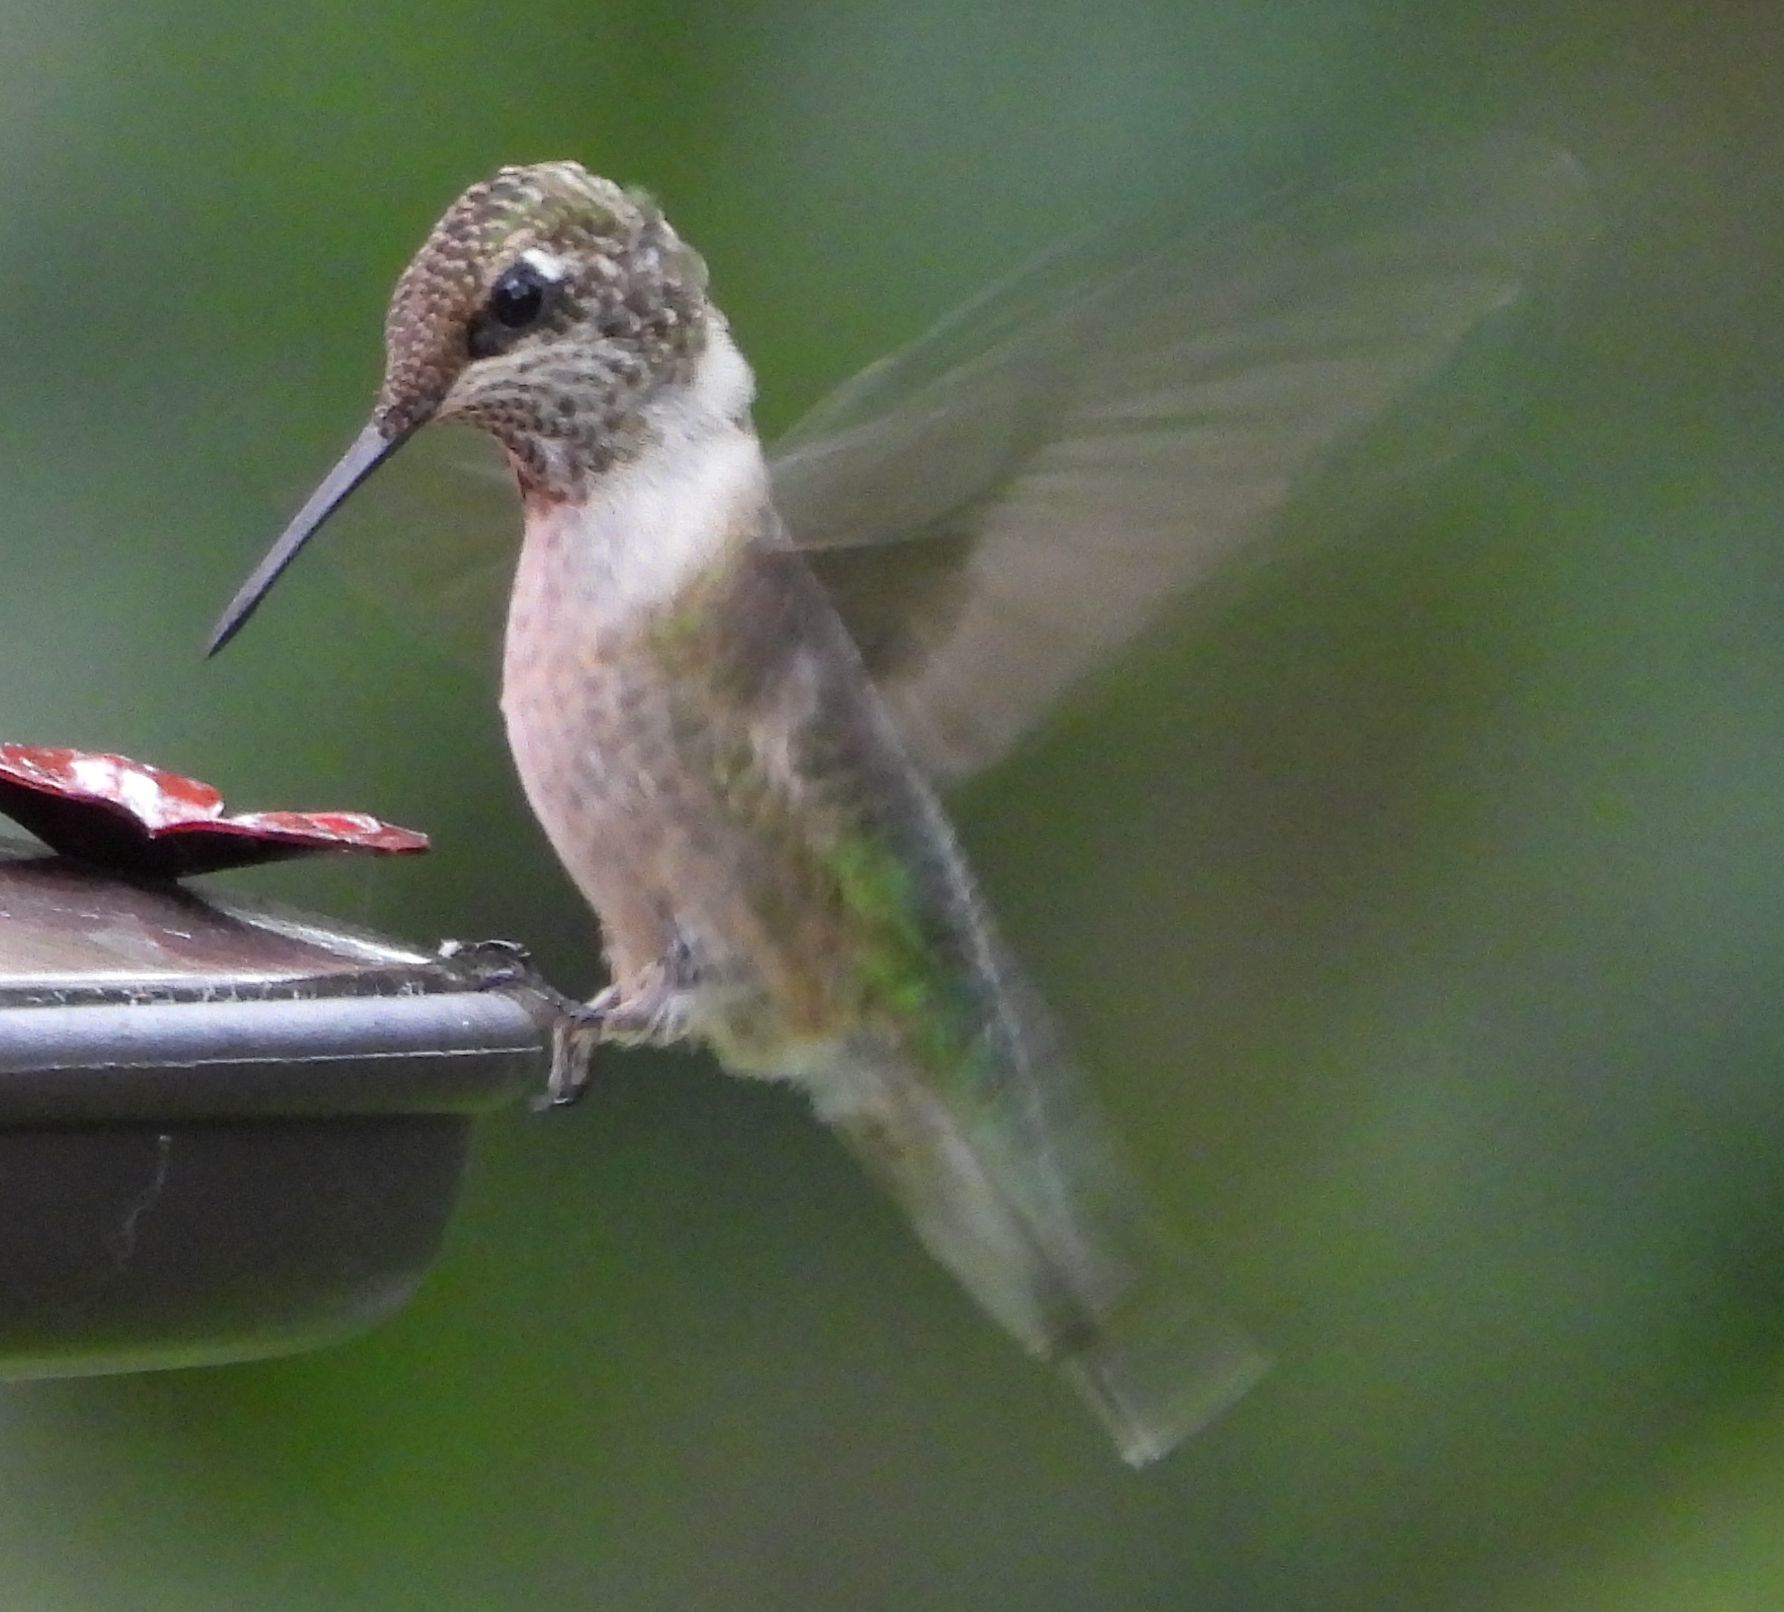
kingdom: Animalia
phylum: Chordata
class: Aves
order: Apodiformes
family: Trochilidae
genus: Archilochus
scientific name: Archilochus colubris
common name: Ruby-throated hummingbird
